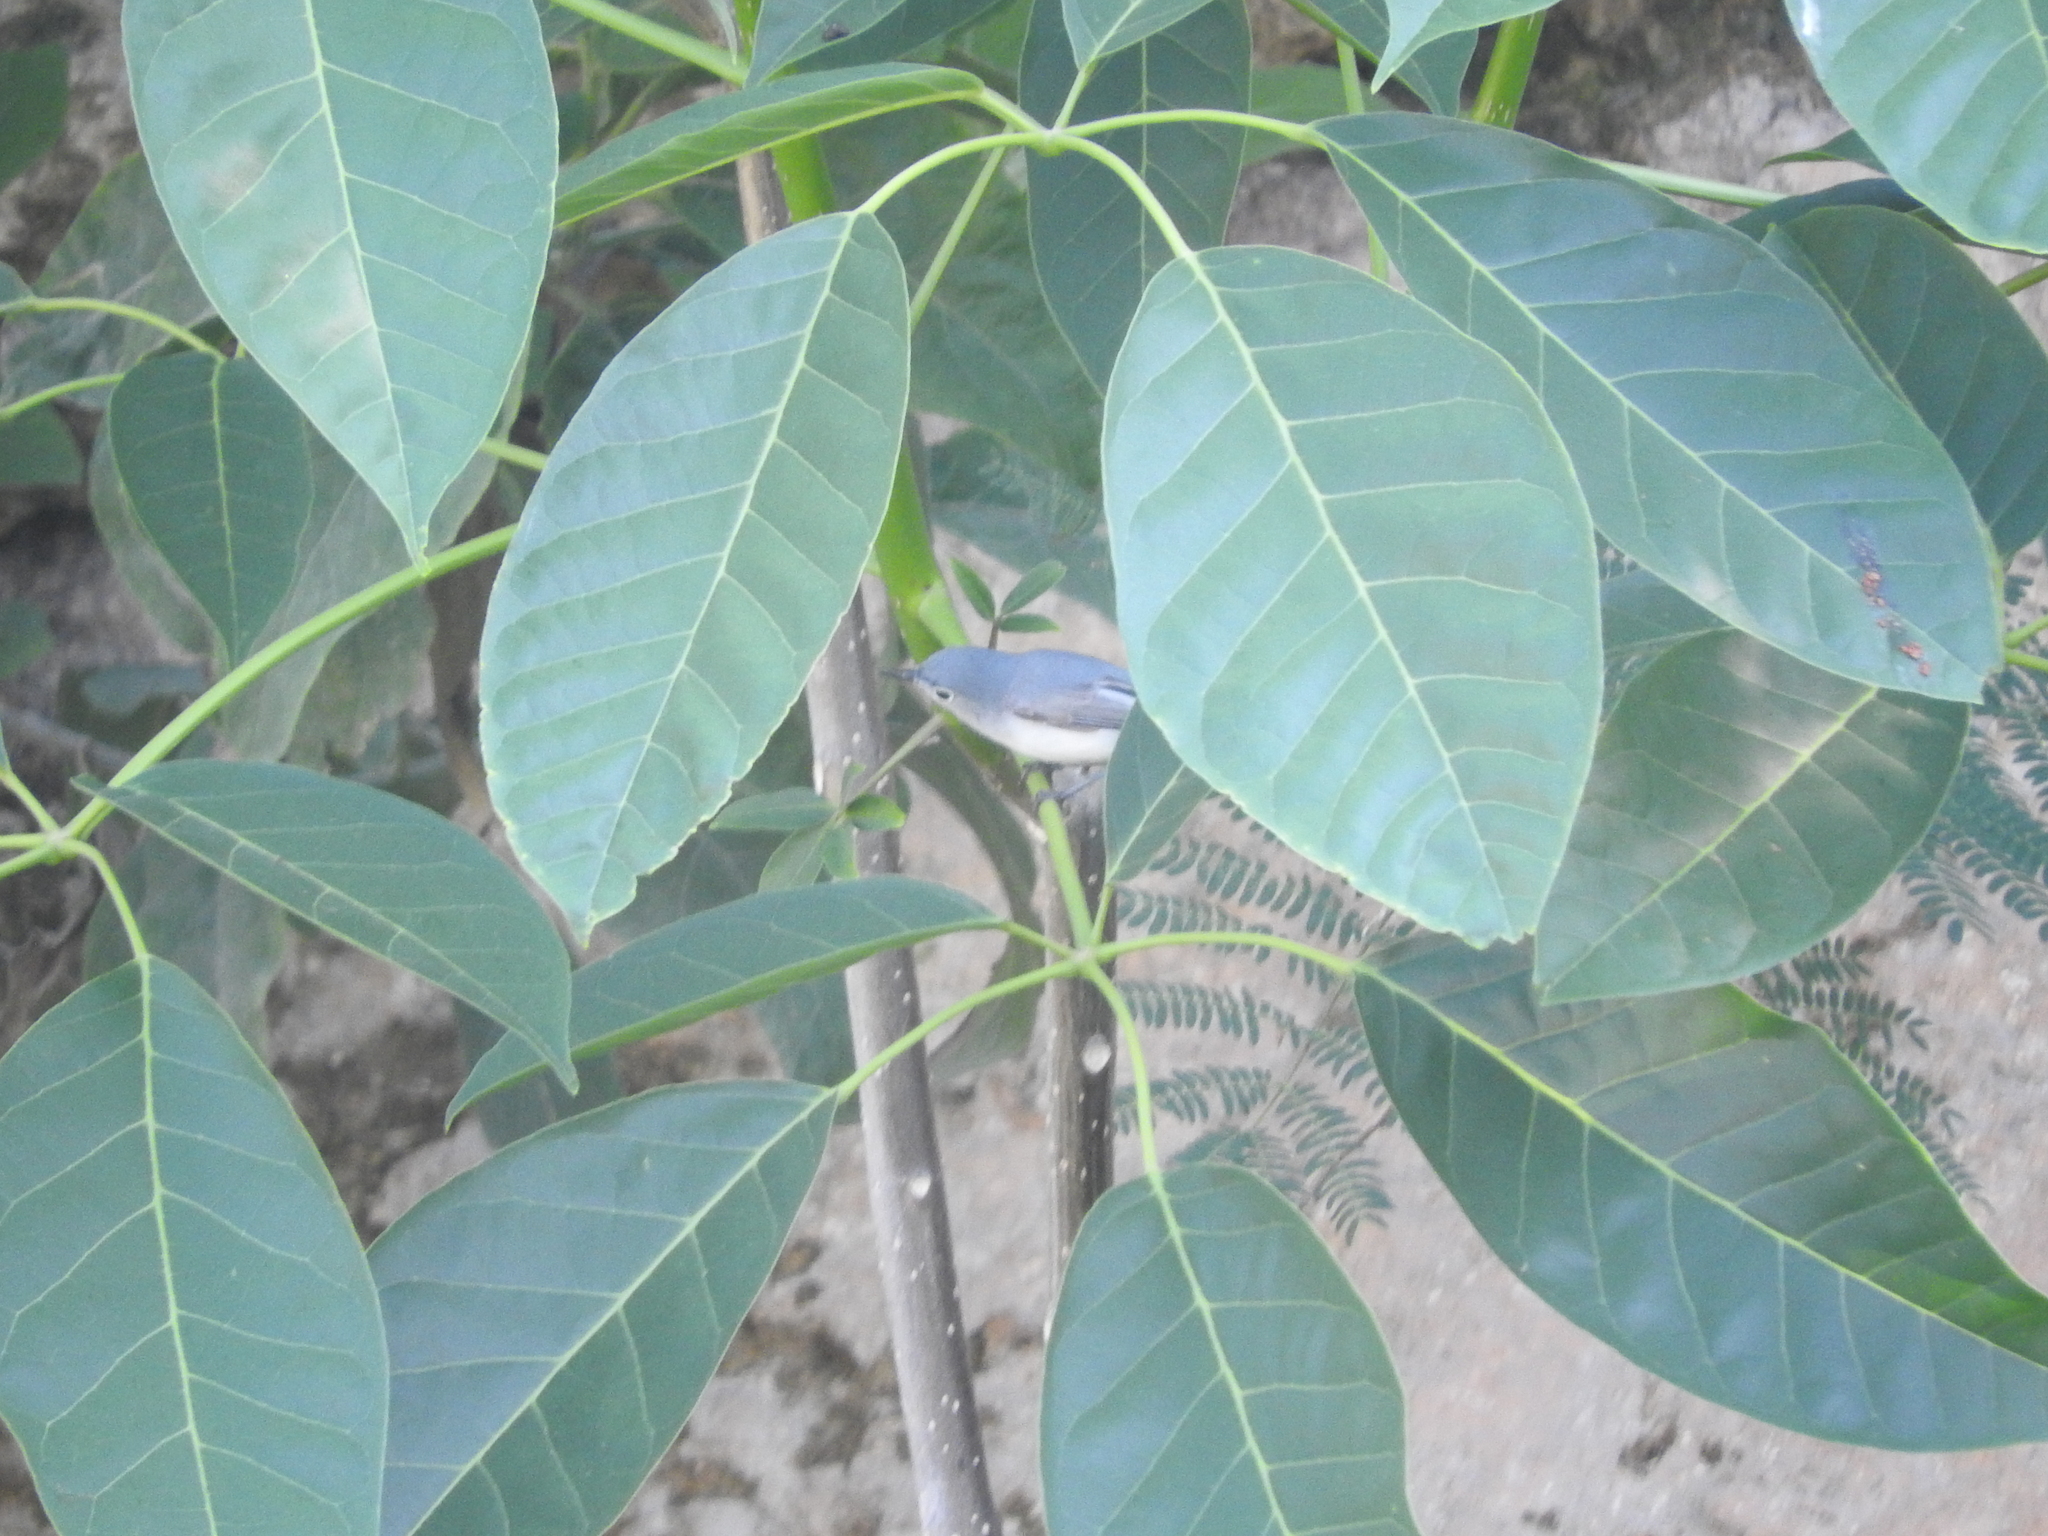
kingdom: Animalia
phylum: Chordata
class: Aves
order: Passeriformes
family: Polioptilidae
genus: Polioptila
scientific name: Polioptila caerulea
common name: Blue-gray gnatcatcher
